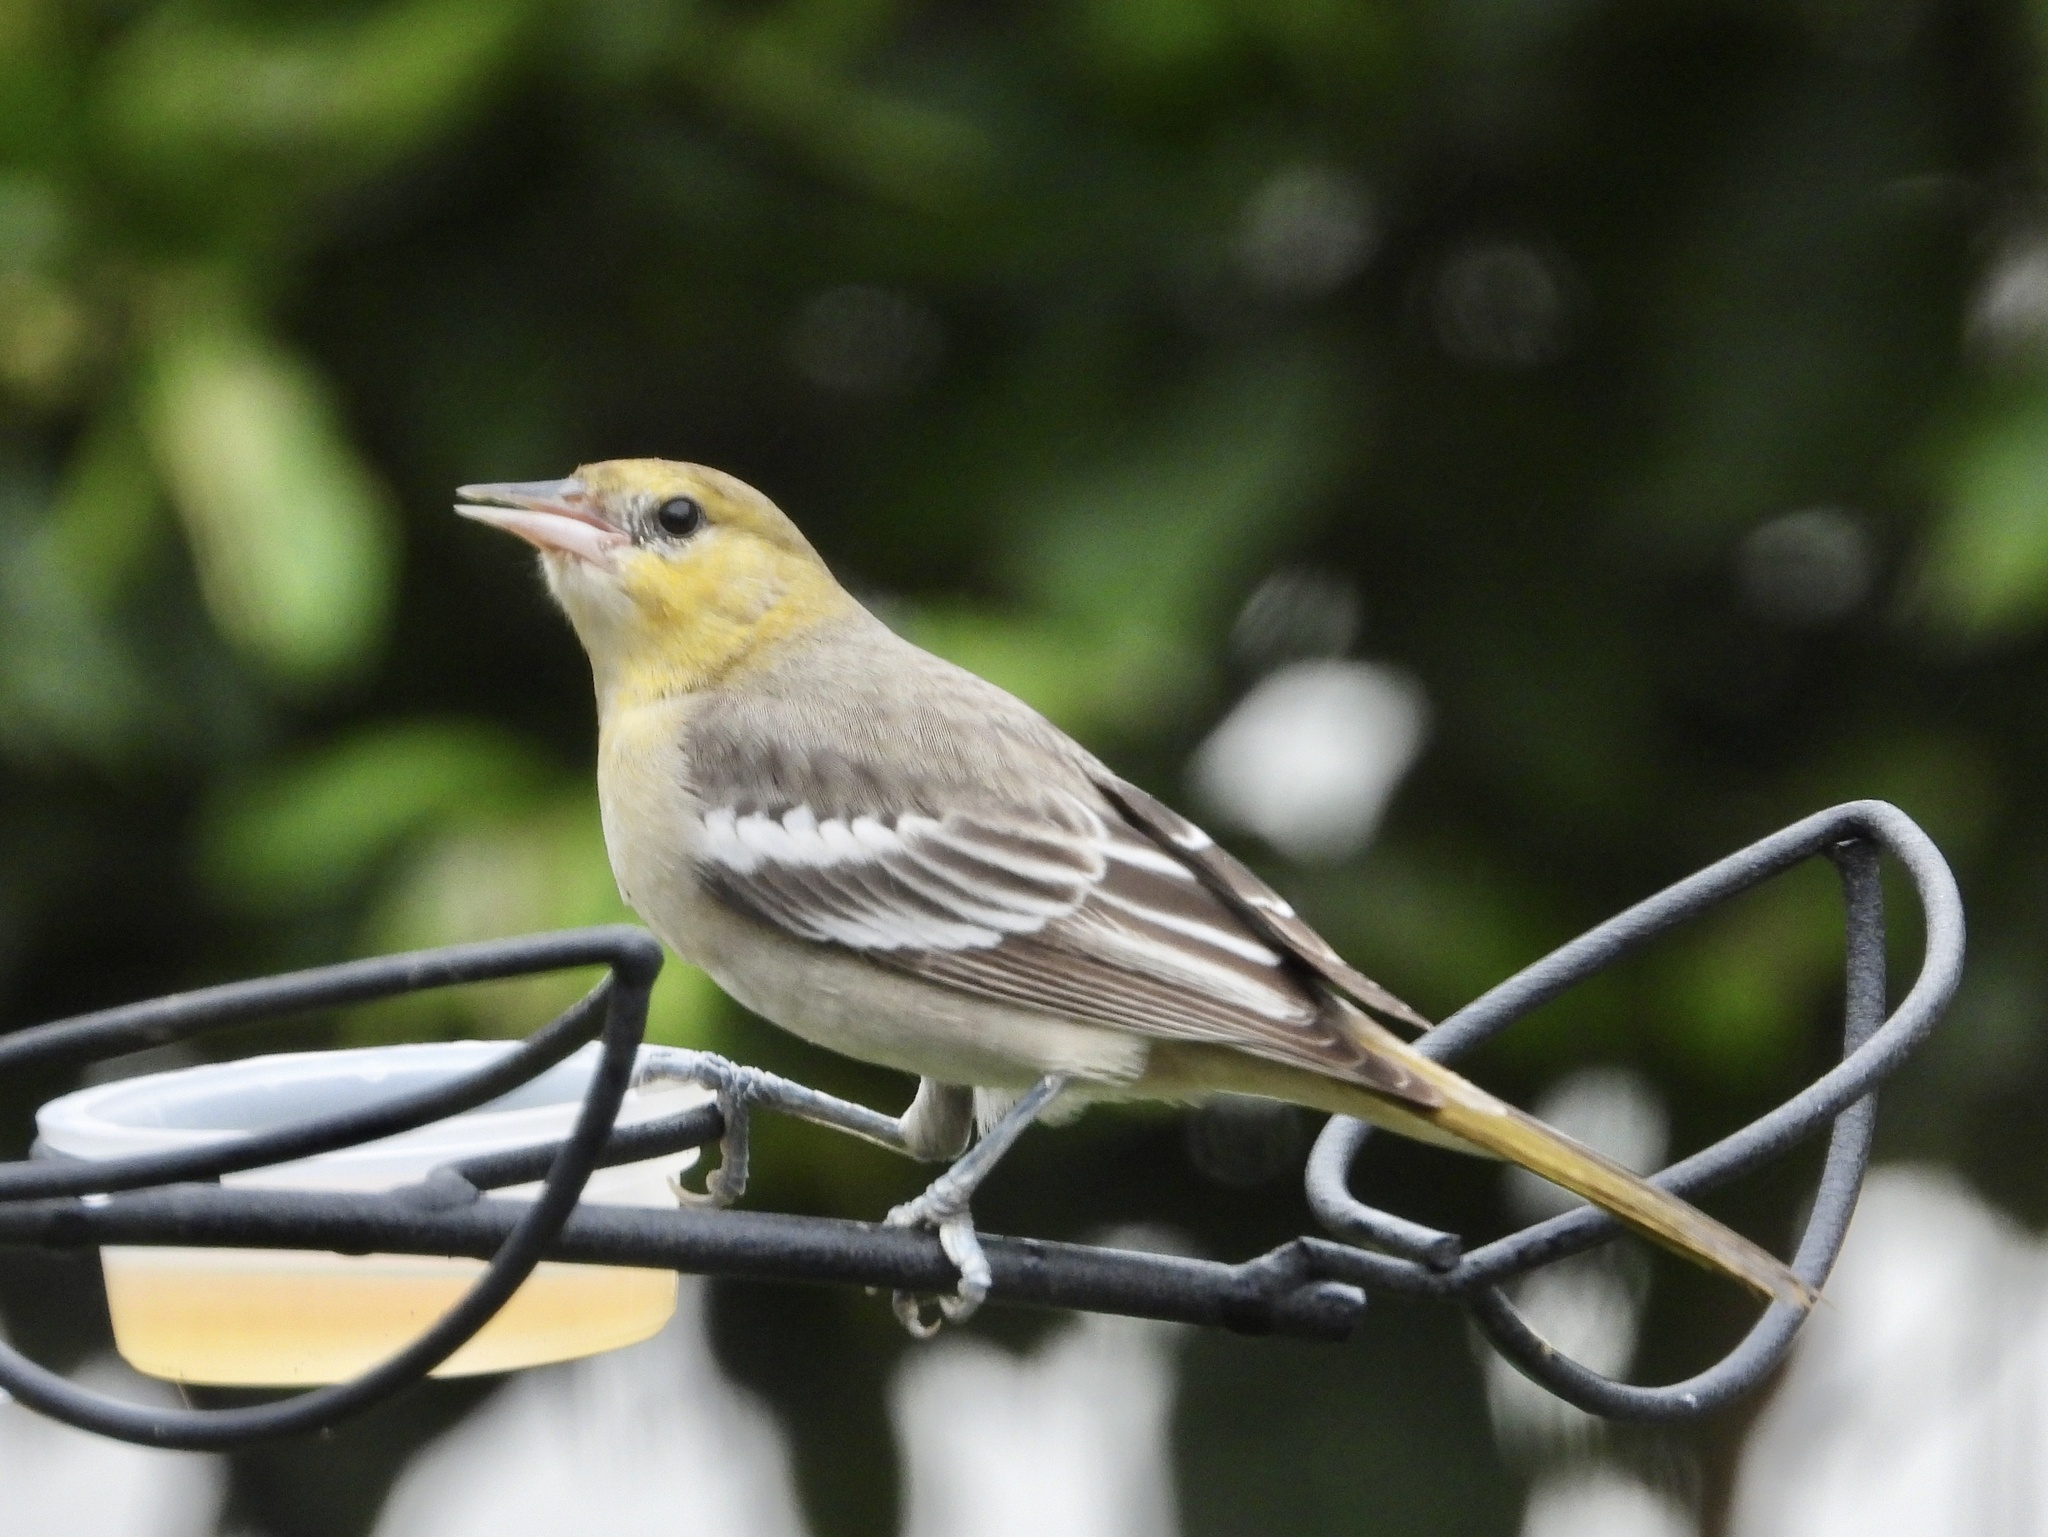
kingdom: Animalia
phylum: Chordata
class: Aves
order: Passeriformes
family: Icteridae
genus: Icterus
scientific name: Icterus bullockii
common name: Bullock's oriole
